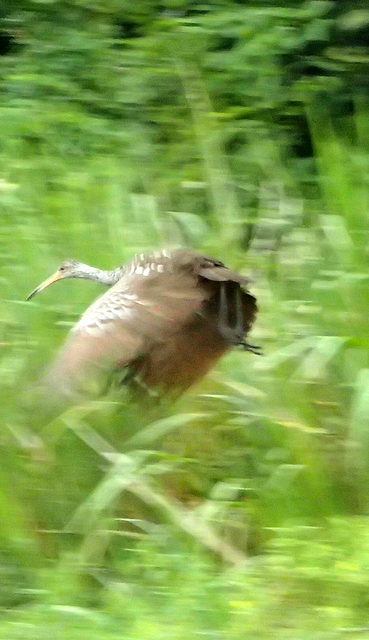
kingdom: Animalia
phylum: Chordata
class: Aves
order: Gruiformes
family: Aramidae
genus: Aramus
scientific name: Aramus guarauna
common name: Limpkin
